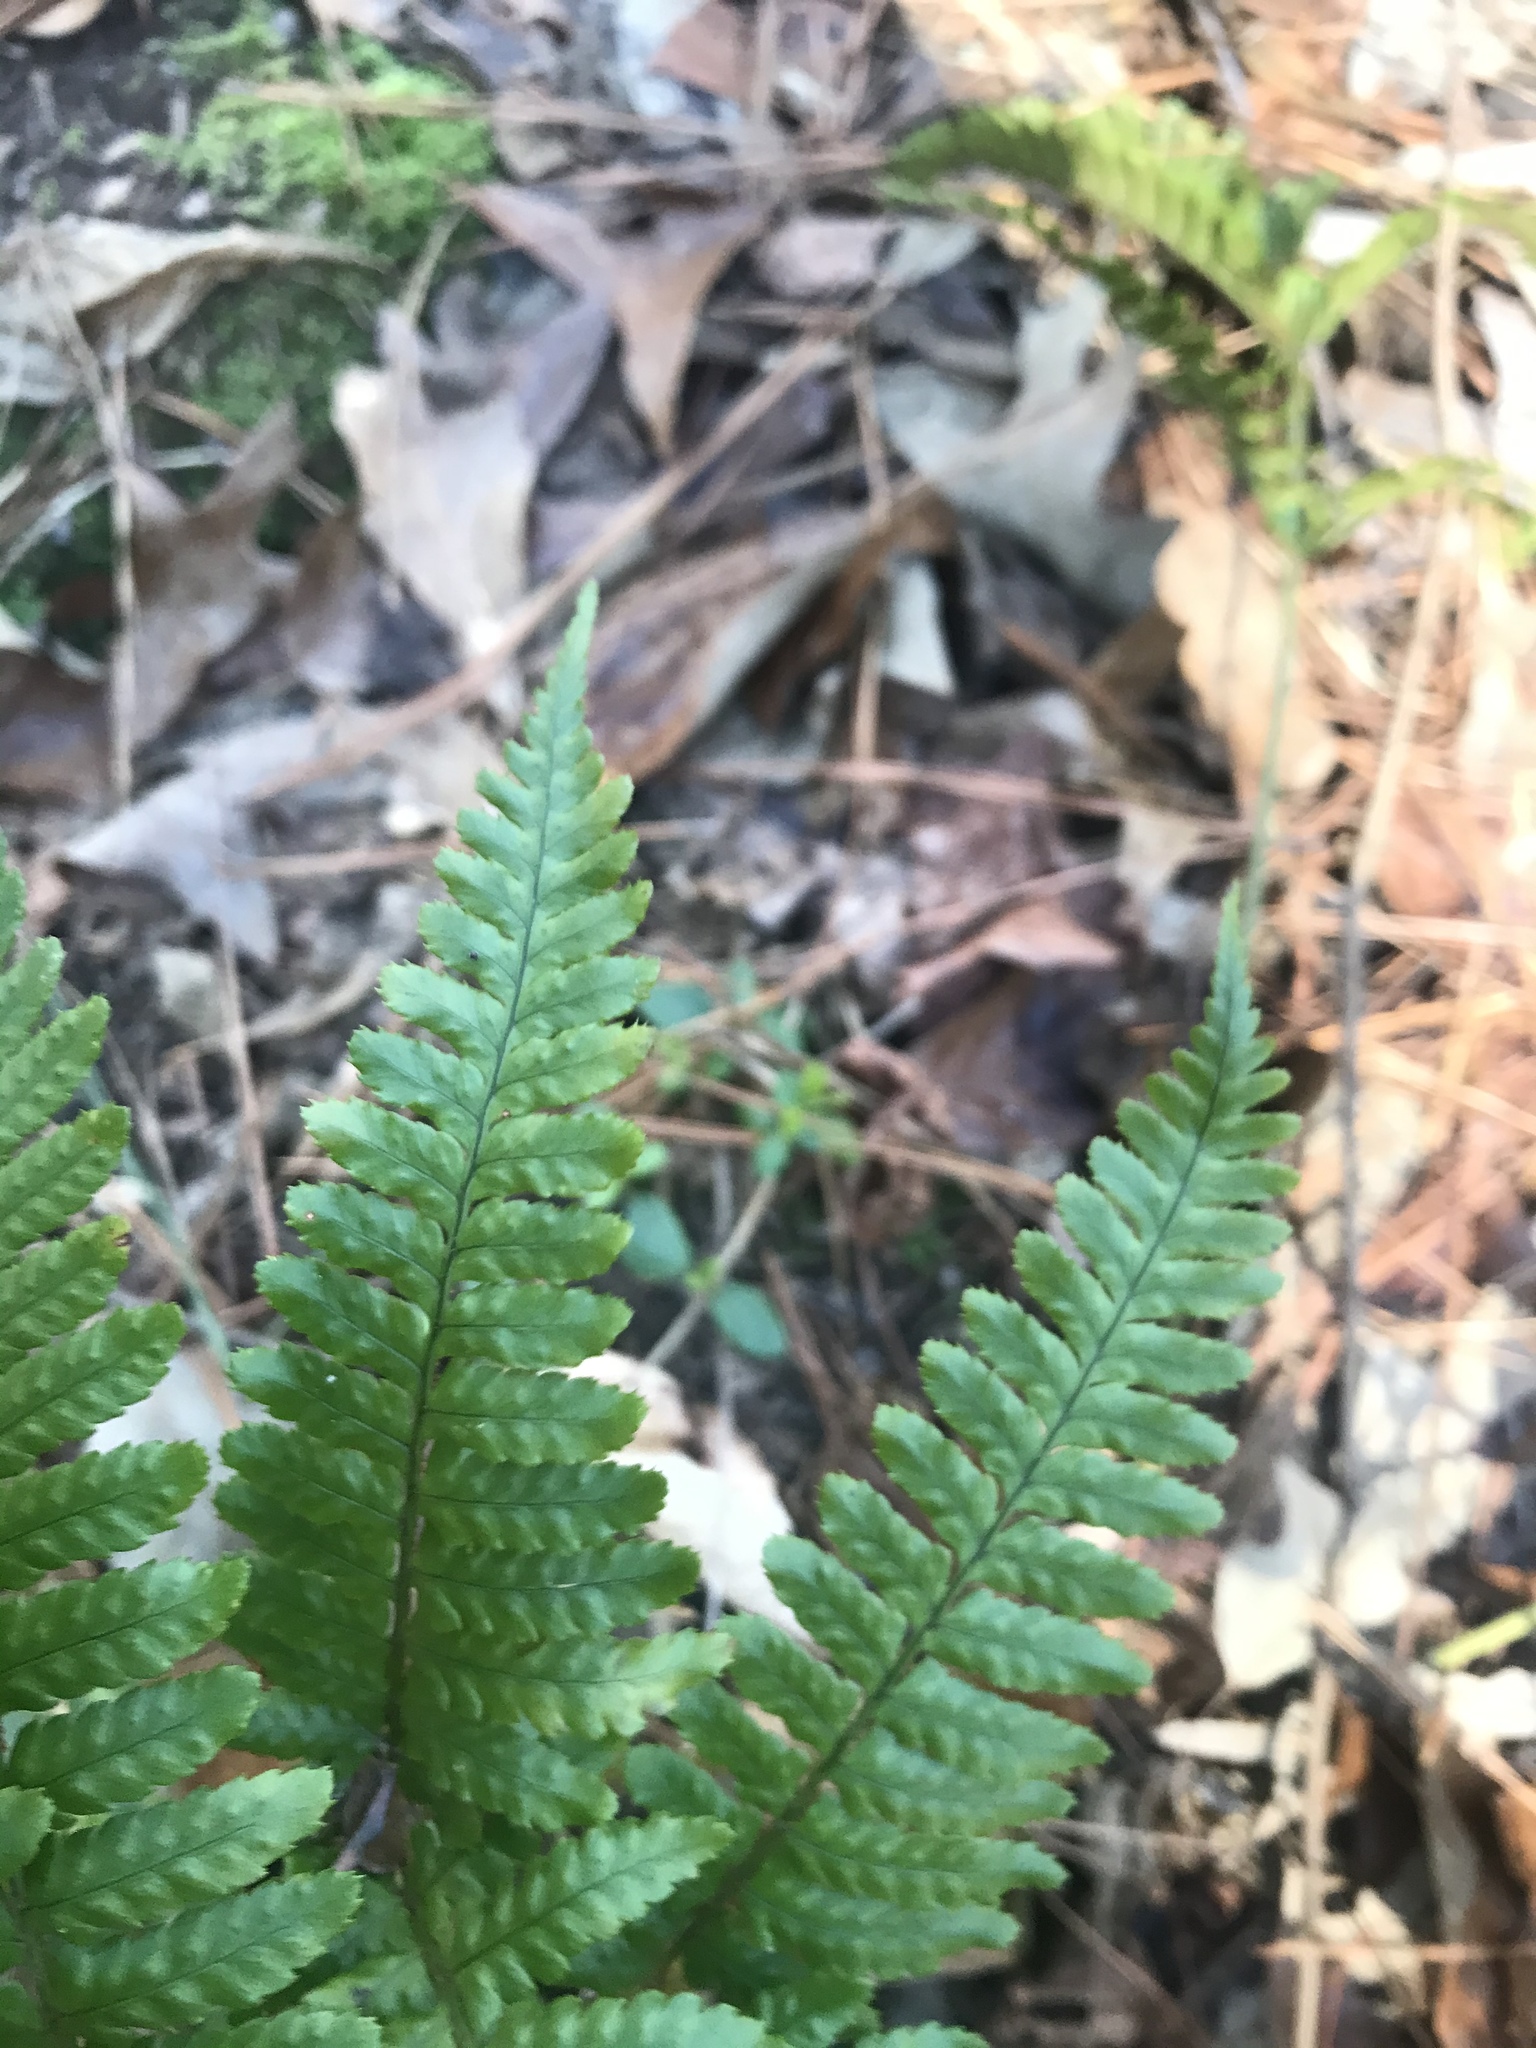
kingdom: Plantae
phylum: Tracheophyta
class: Polypodiopsida
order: Polypodiales
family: Dryopteridaceae
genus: Dryopteris
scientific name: Dryopteris erythrosora
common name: Autumn fern
